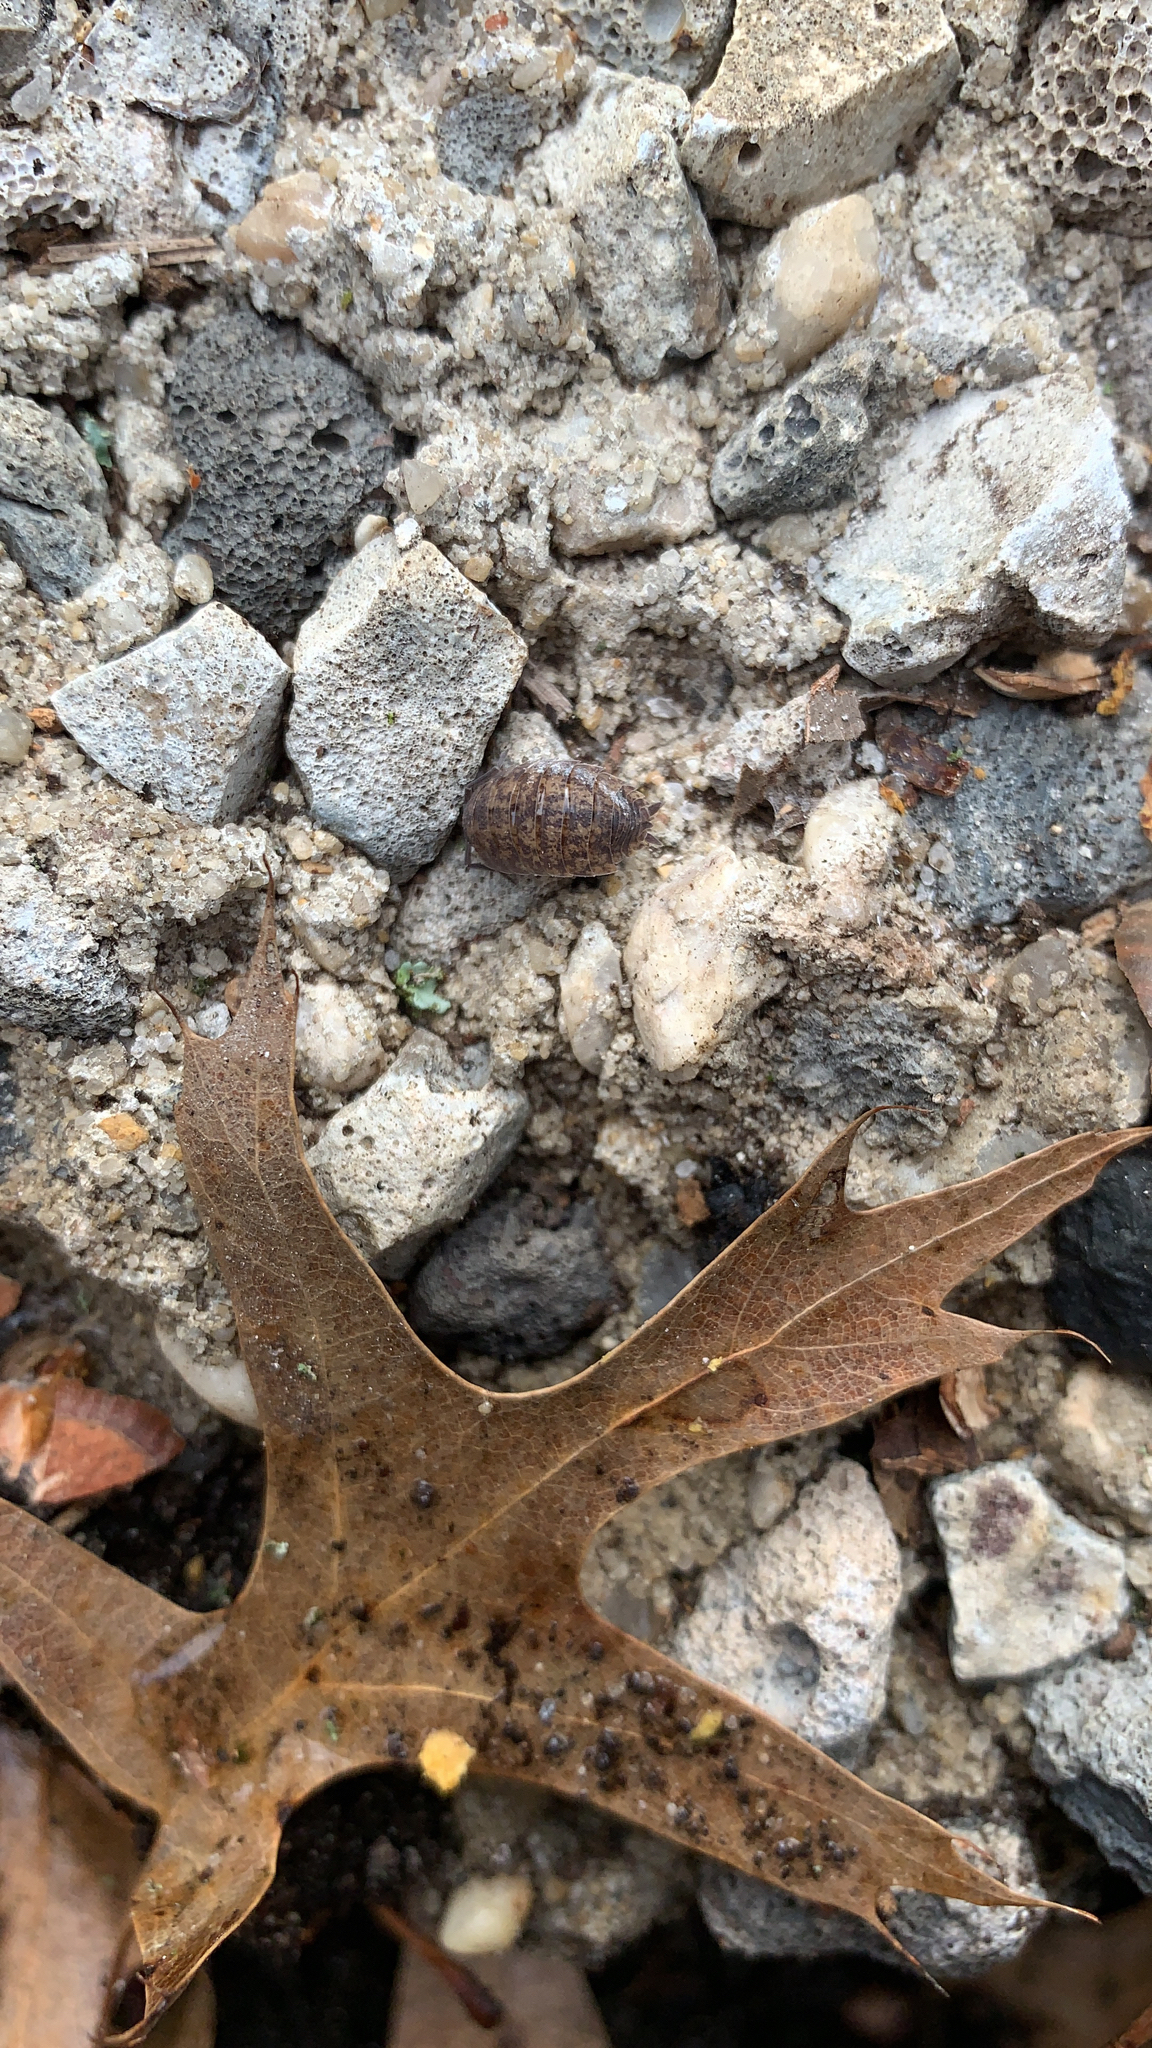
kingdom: Animalia
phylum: Arthropoda
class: Malacostraca
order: Isopoda
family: Porcellionidae
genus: Porcellio
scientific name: Porcellio scaber
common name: Common rough woodlouse
